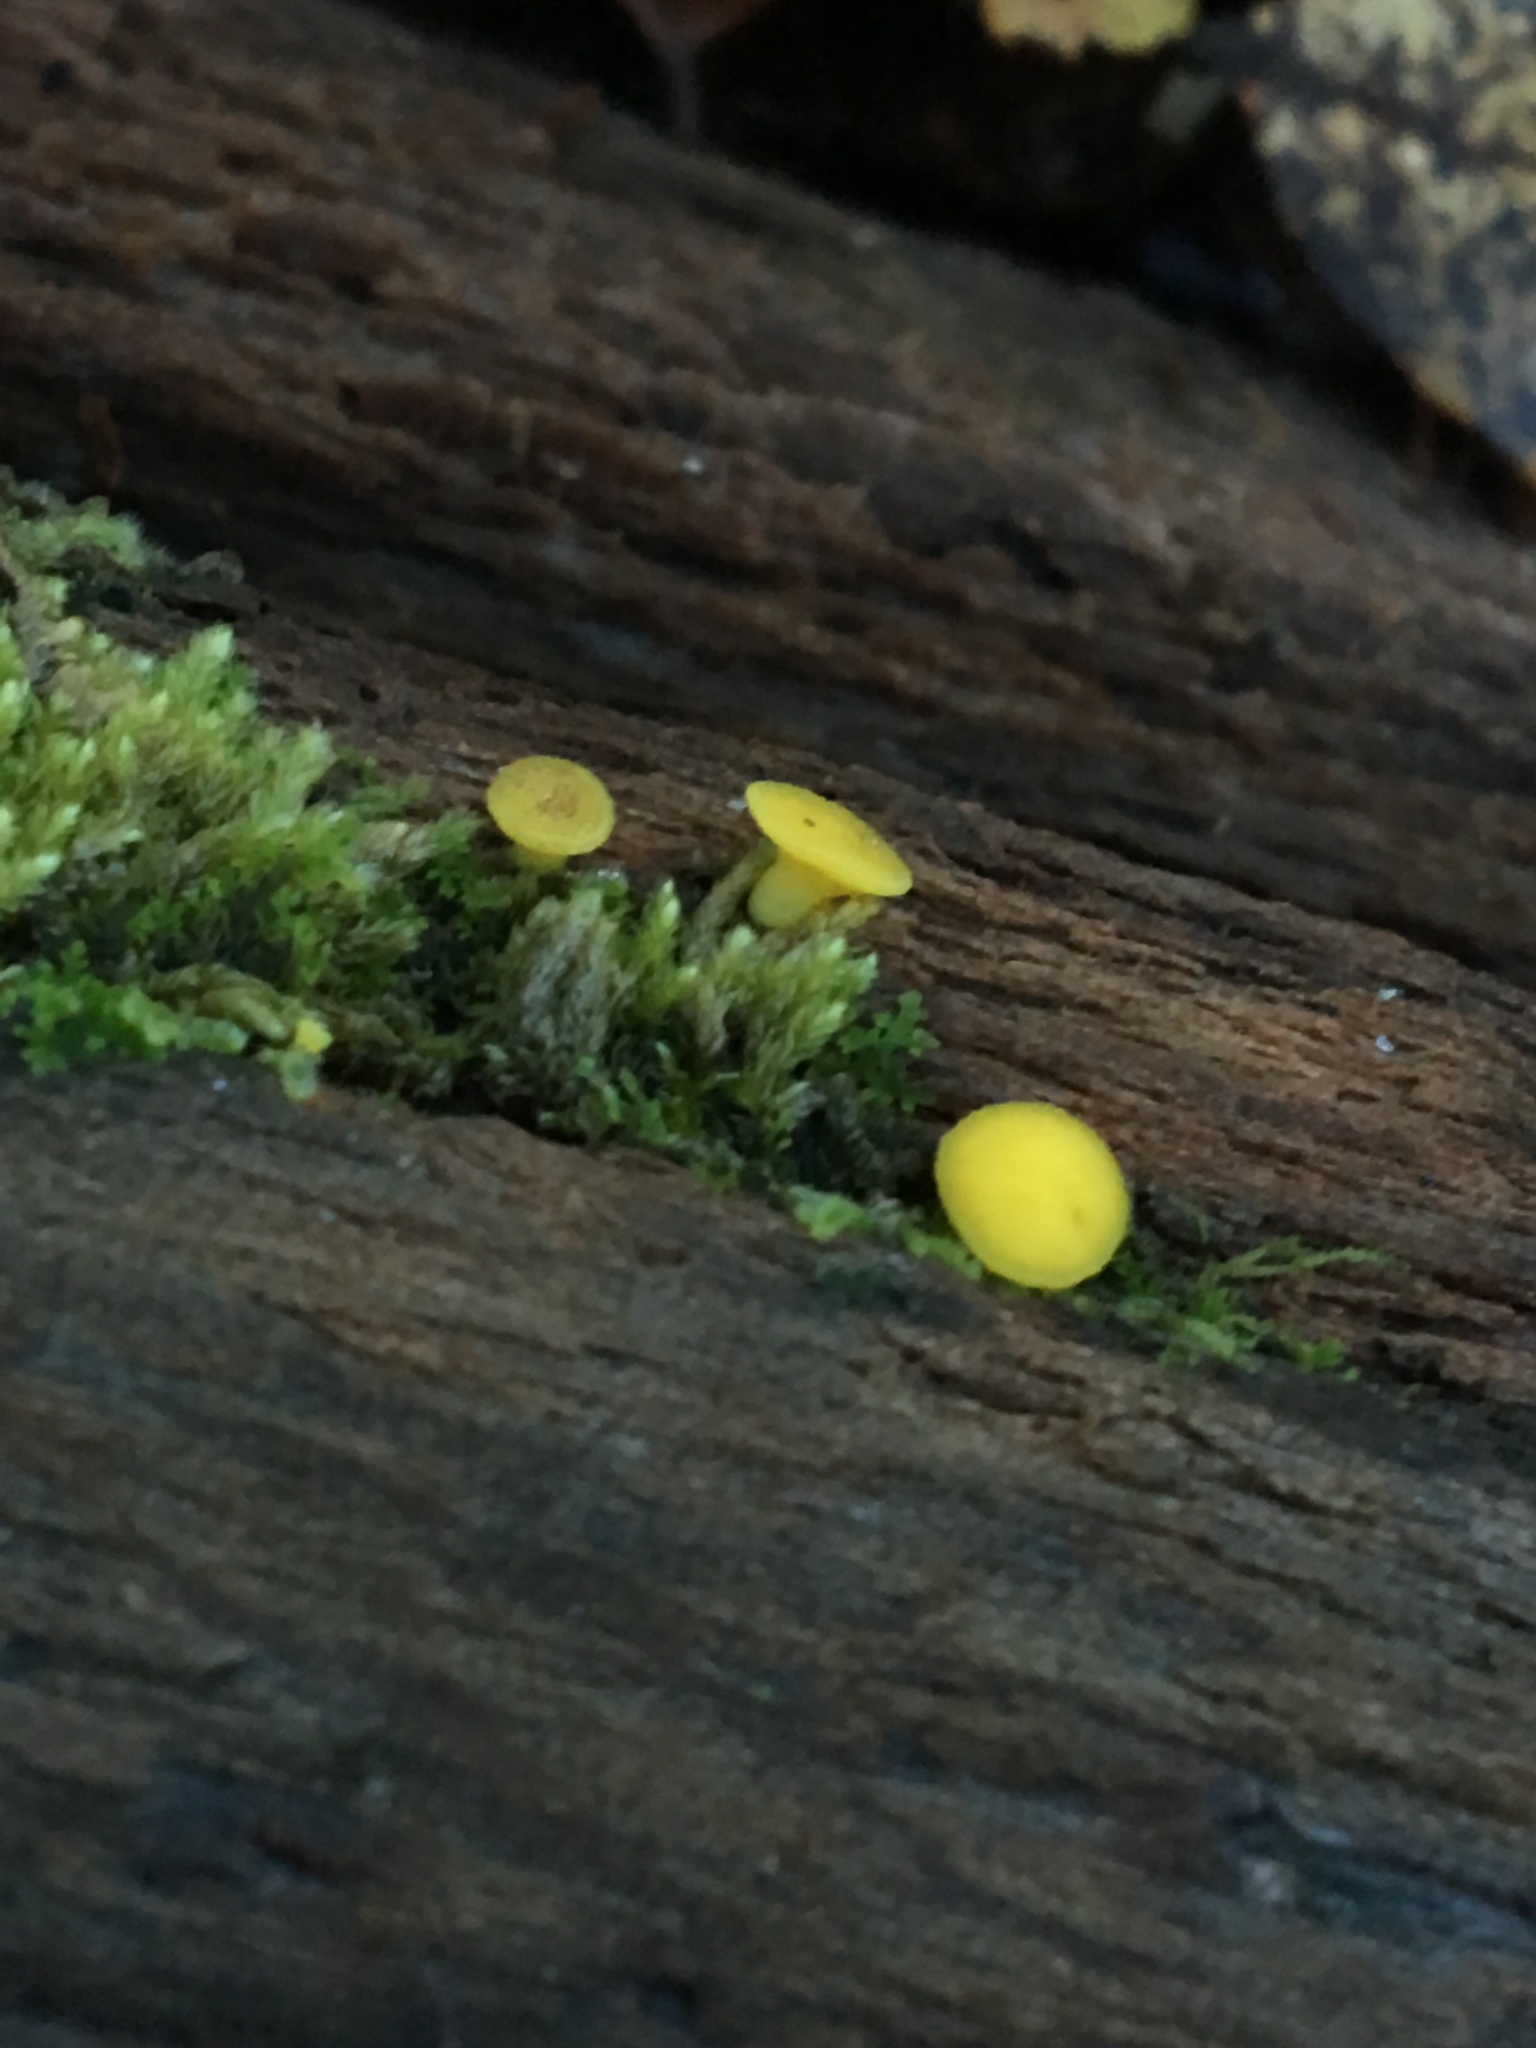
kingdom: Fungi
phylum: Ascomycota
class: Leotiomycetes
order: Helotiales
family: Pezizellaceae
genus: Calycina
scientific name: Calycina citrina
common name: Yellow fairy cups
